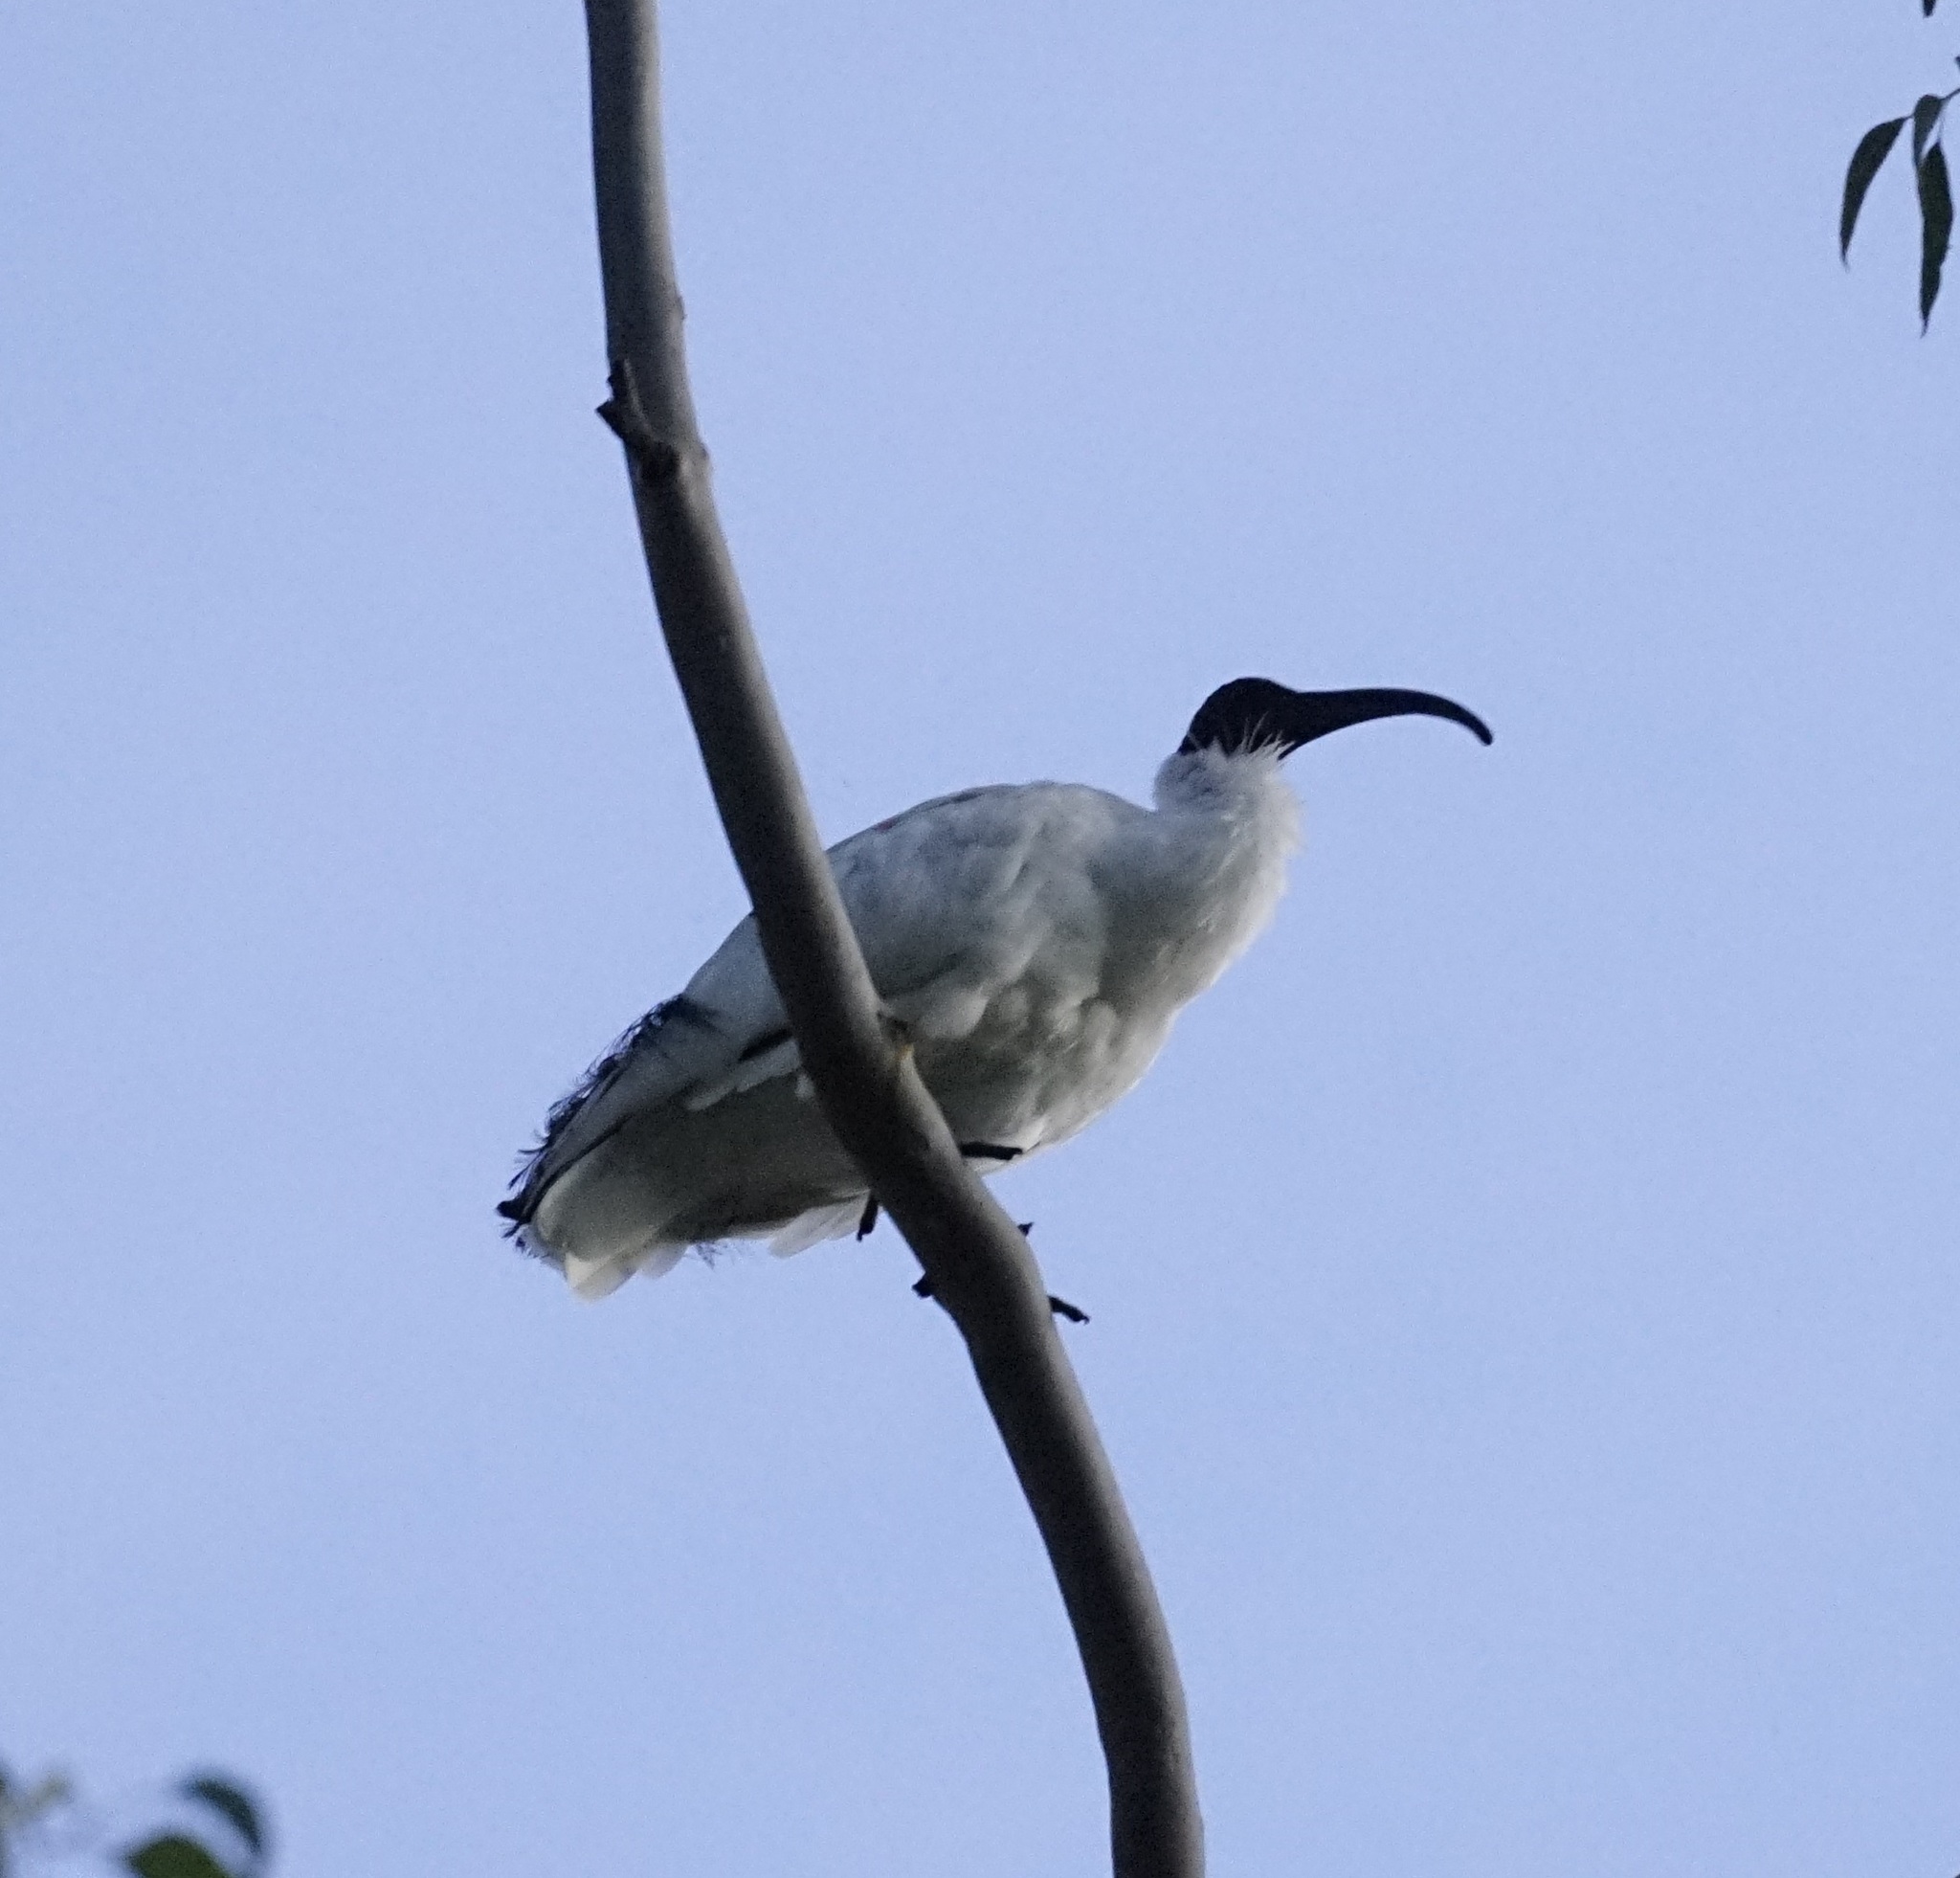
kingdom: Animalia
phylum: Chordata
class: Aves
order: Pelecaniformes
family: Threskiornithidae
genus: Threskiornis
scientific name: Threskiornis molucca
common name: Australian white ibis
